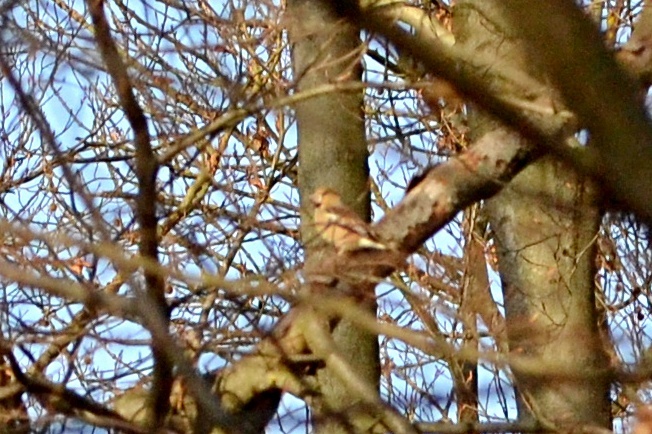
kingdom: Animalia
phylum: Chordata
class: Aves
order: Passeriformes
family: Fringillidae
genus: Coccothraustes
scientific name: Coccothraustes coccothraustes
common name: Hawfinch
